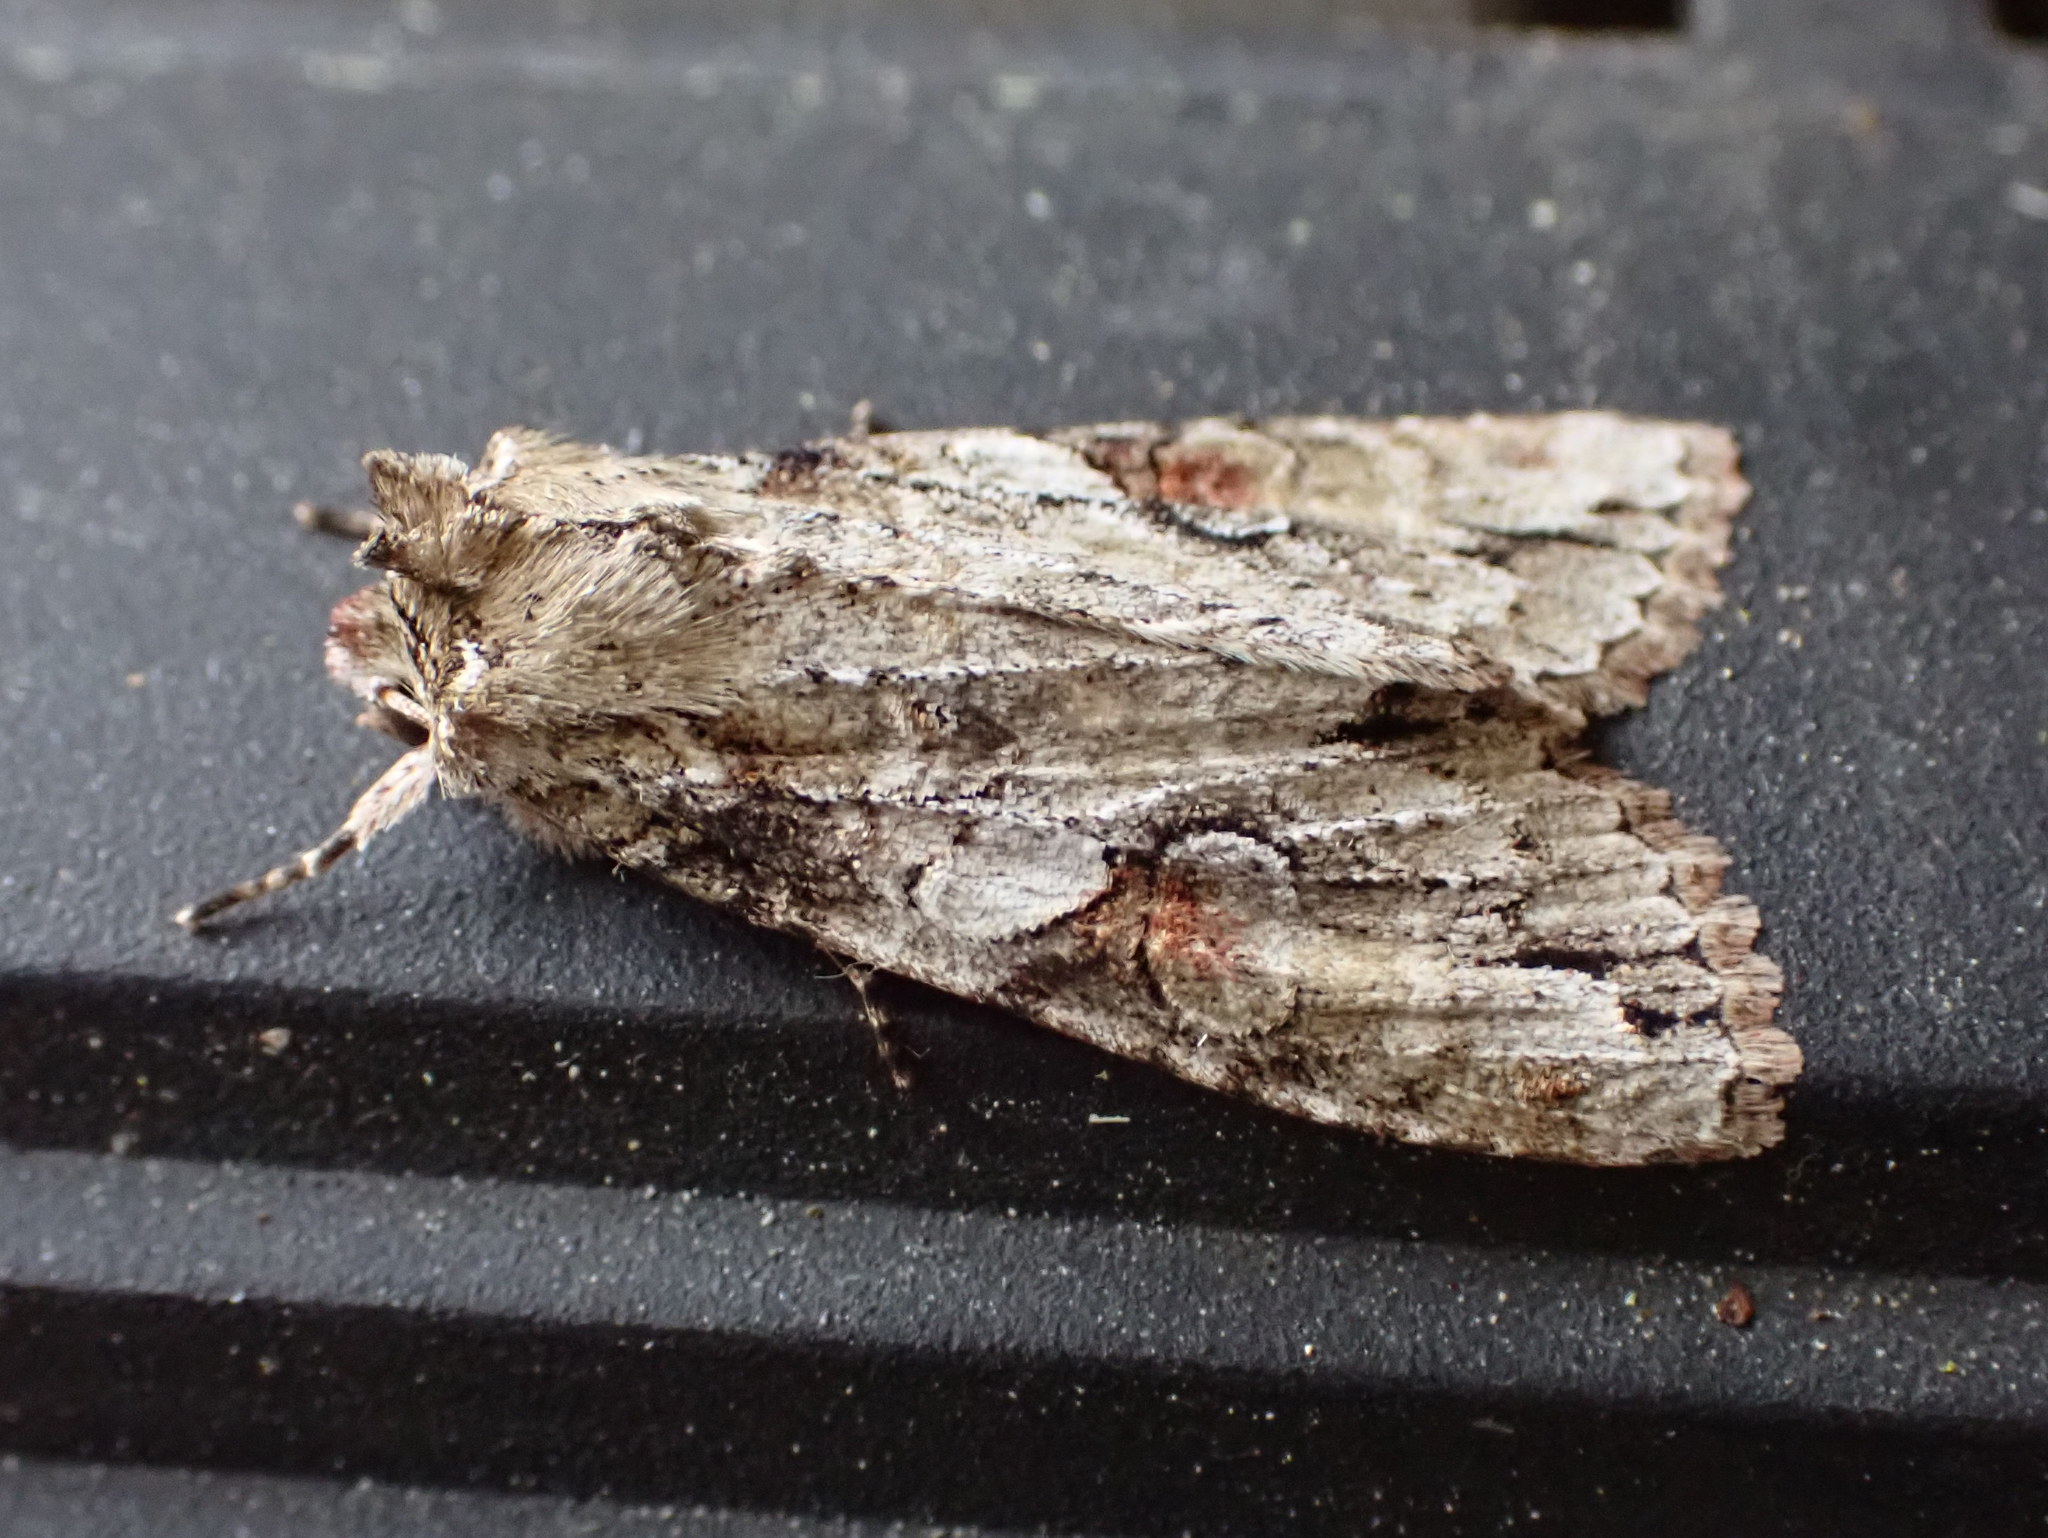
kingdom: Animalia
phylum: Arthropoda
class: Insecta
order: Lepidoptera
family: Noctuidae
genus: Achatia
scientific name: Achatia latex
